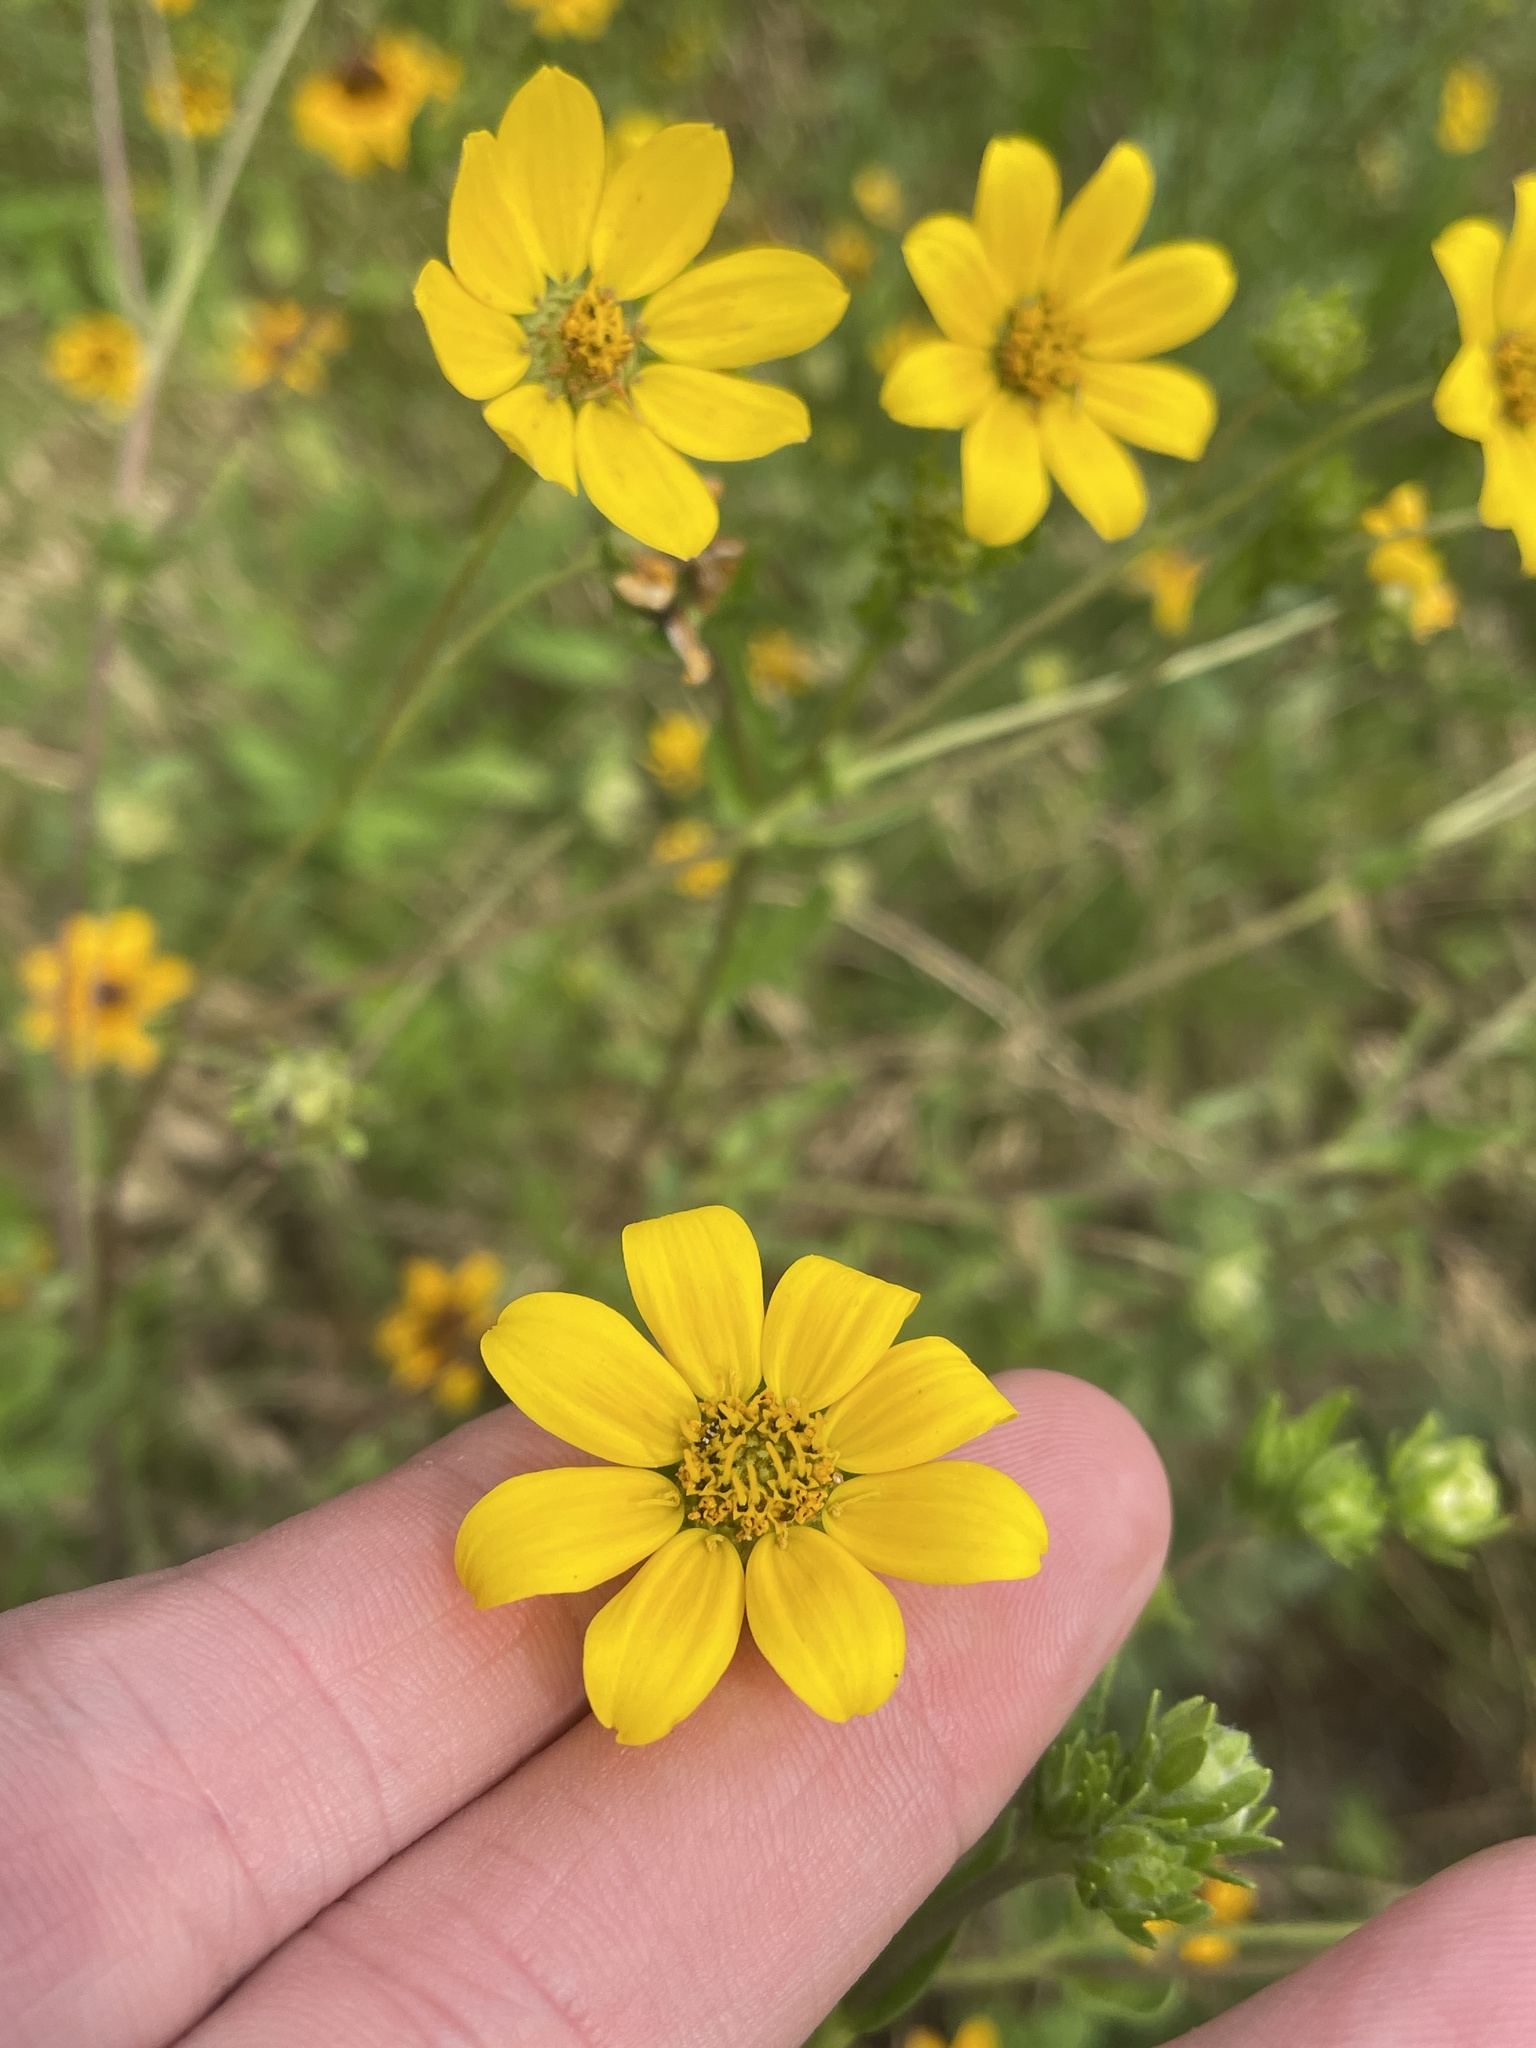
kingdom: Plantae
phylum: Tracheophyta
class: Magnoliopsida
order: Asterales
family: Asteraceae
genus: Engelmannia
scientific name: Engelmannia peristenia
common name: Engelmann's daisy
